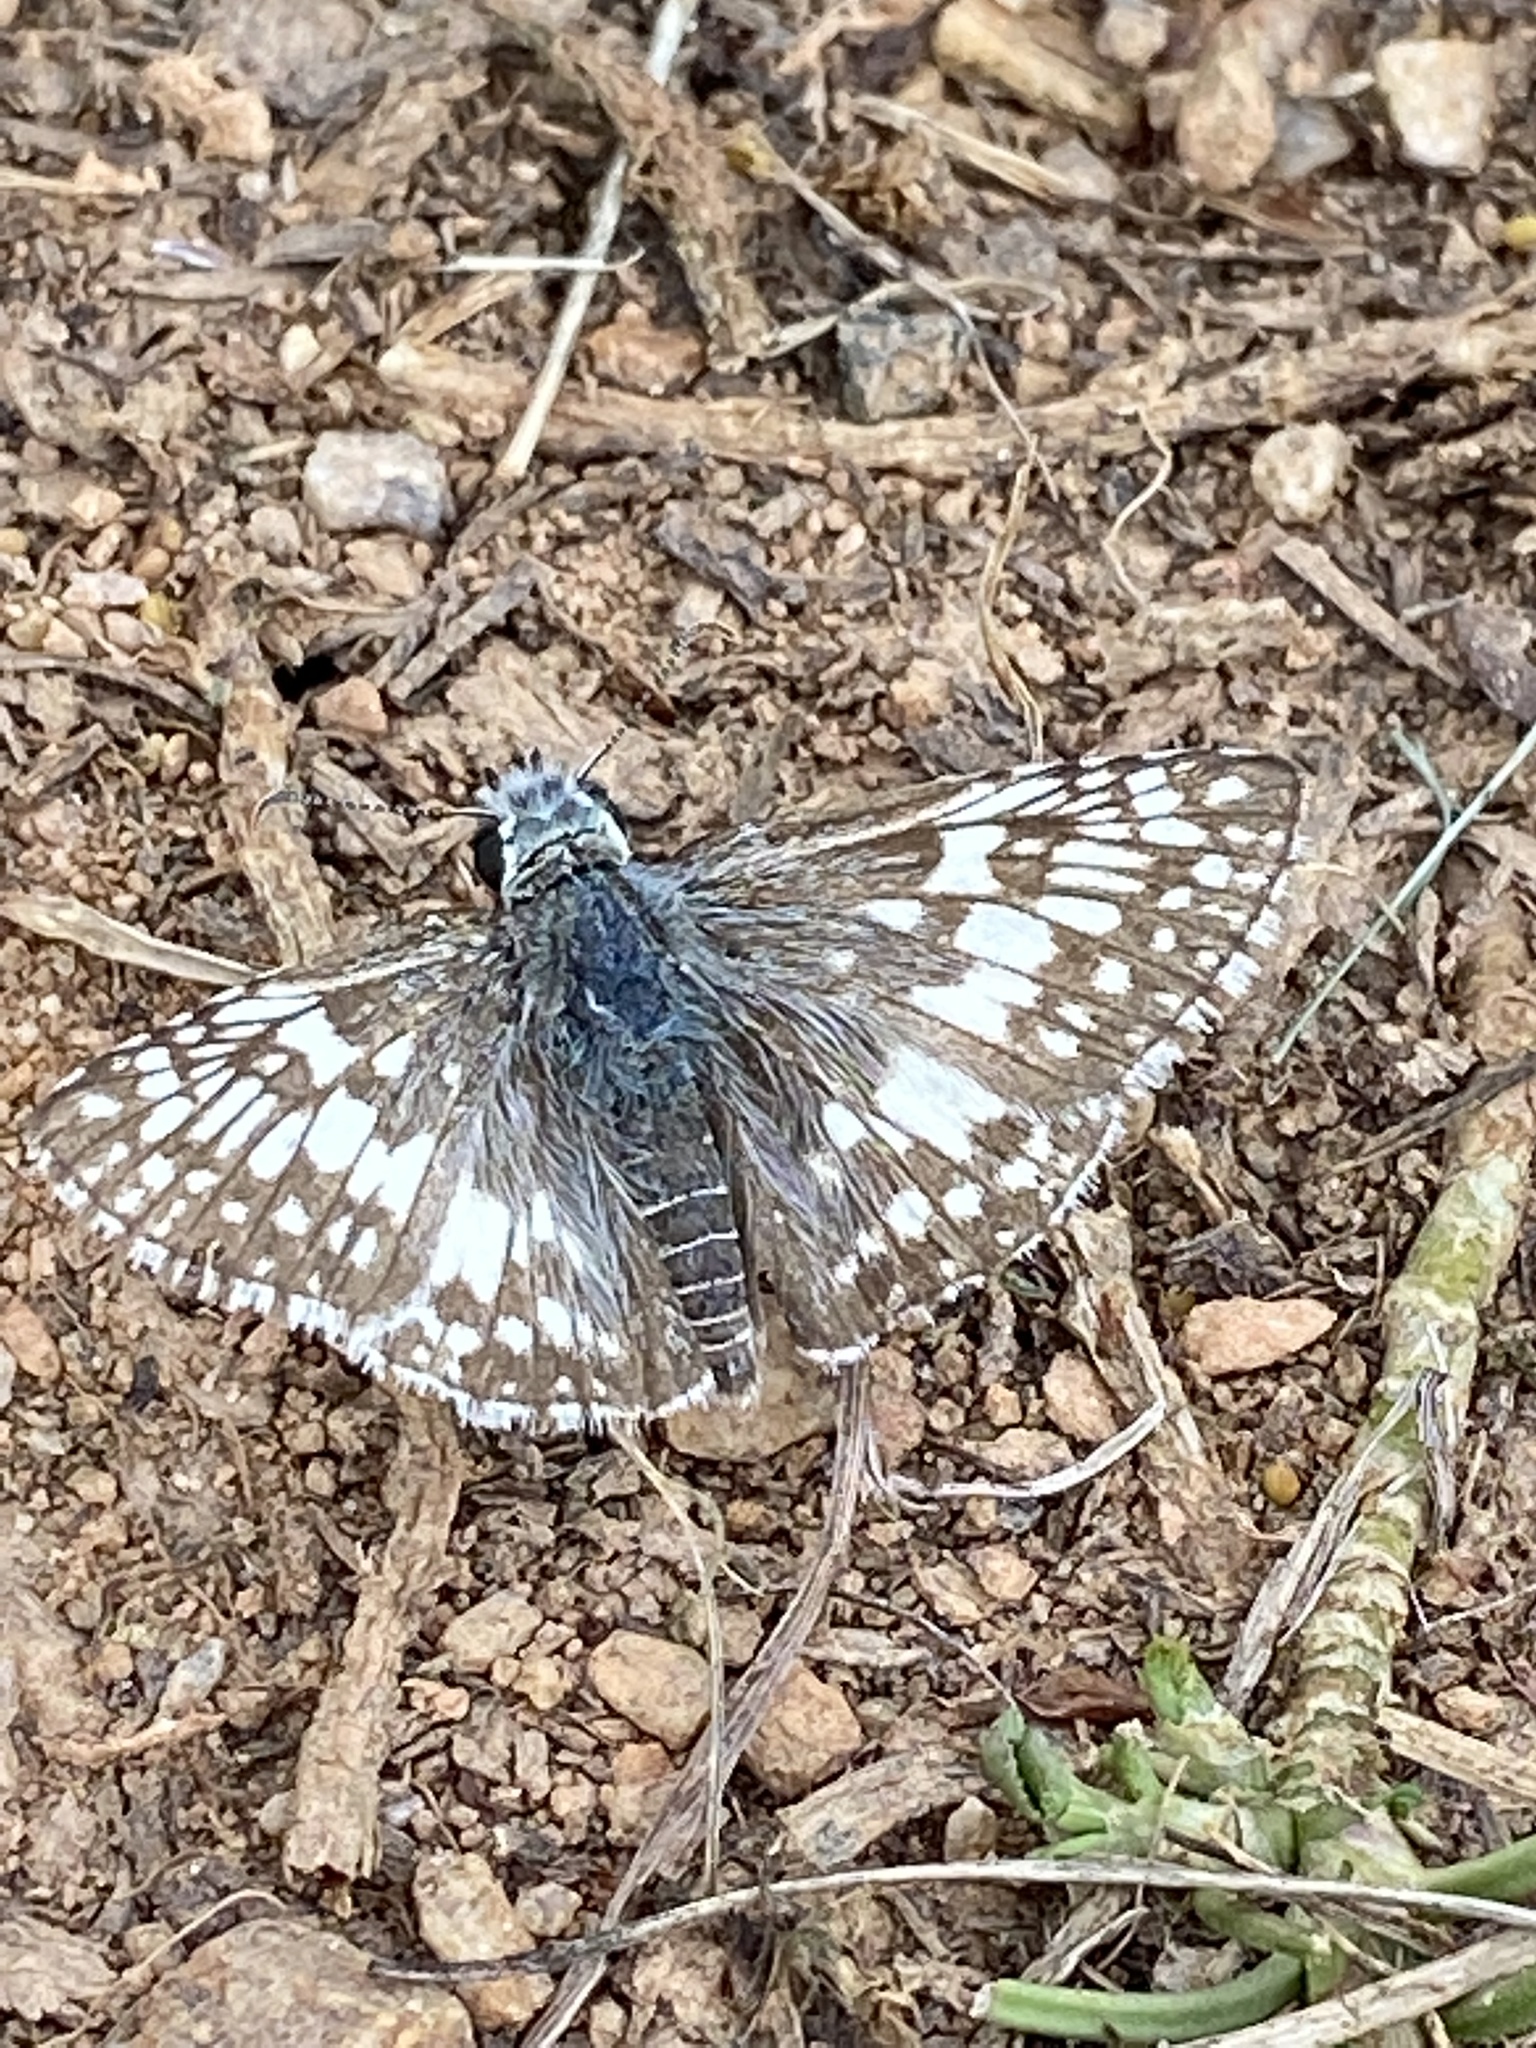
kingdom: Animalia
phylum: Arthropoda
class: Insecta
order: Lepidoptera
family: Hesperiidae
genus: Burnsius
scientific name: Burnsius communis
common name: Common checkered-skipper
